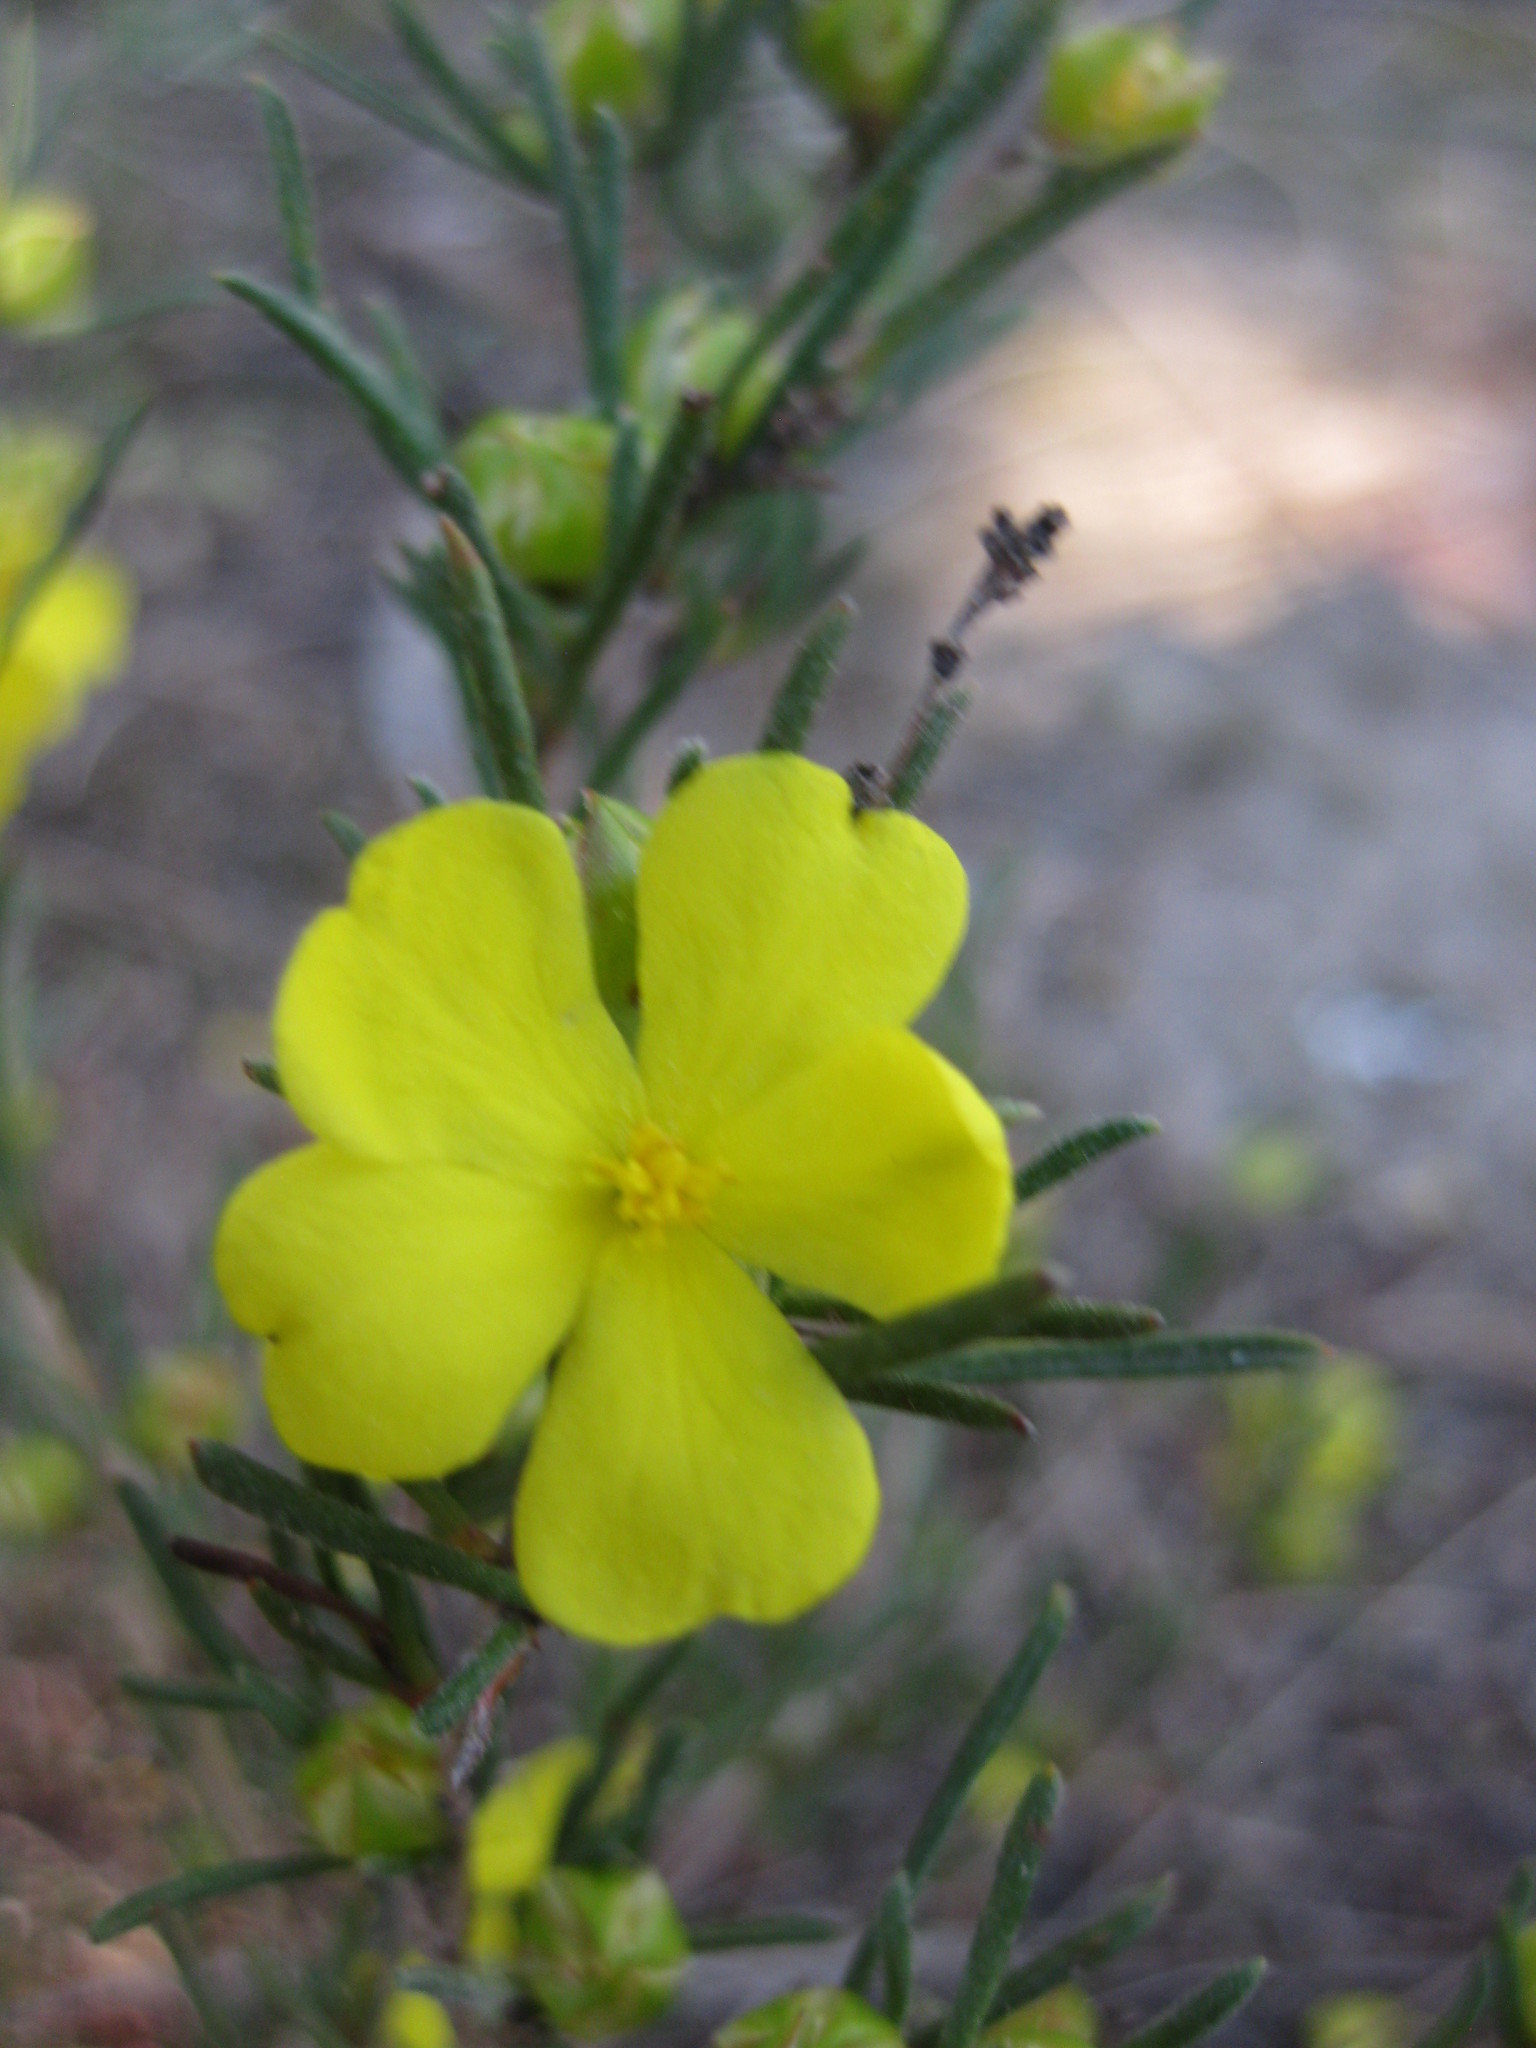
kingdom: Plantae
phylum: Tracheophyta
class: Magnoliopsida
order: Dilleniales
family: Dilleniaceae
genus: Hibbertia
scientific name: Hibbertia virgata
